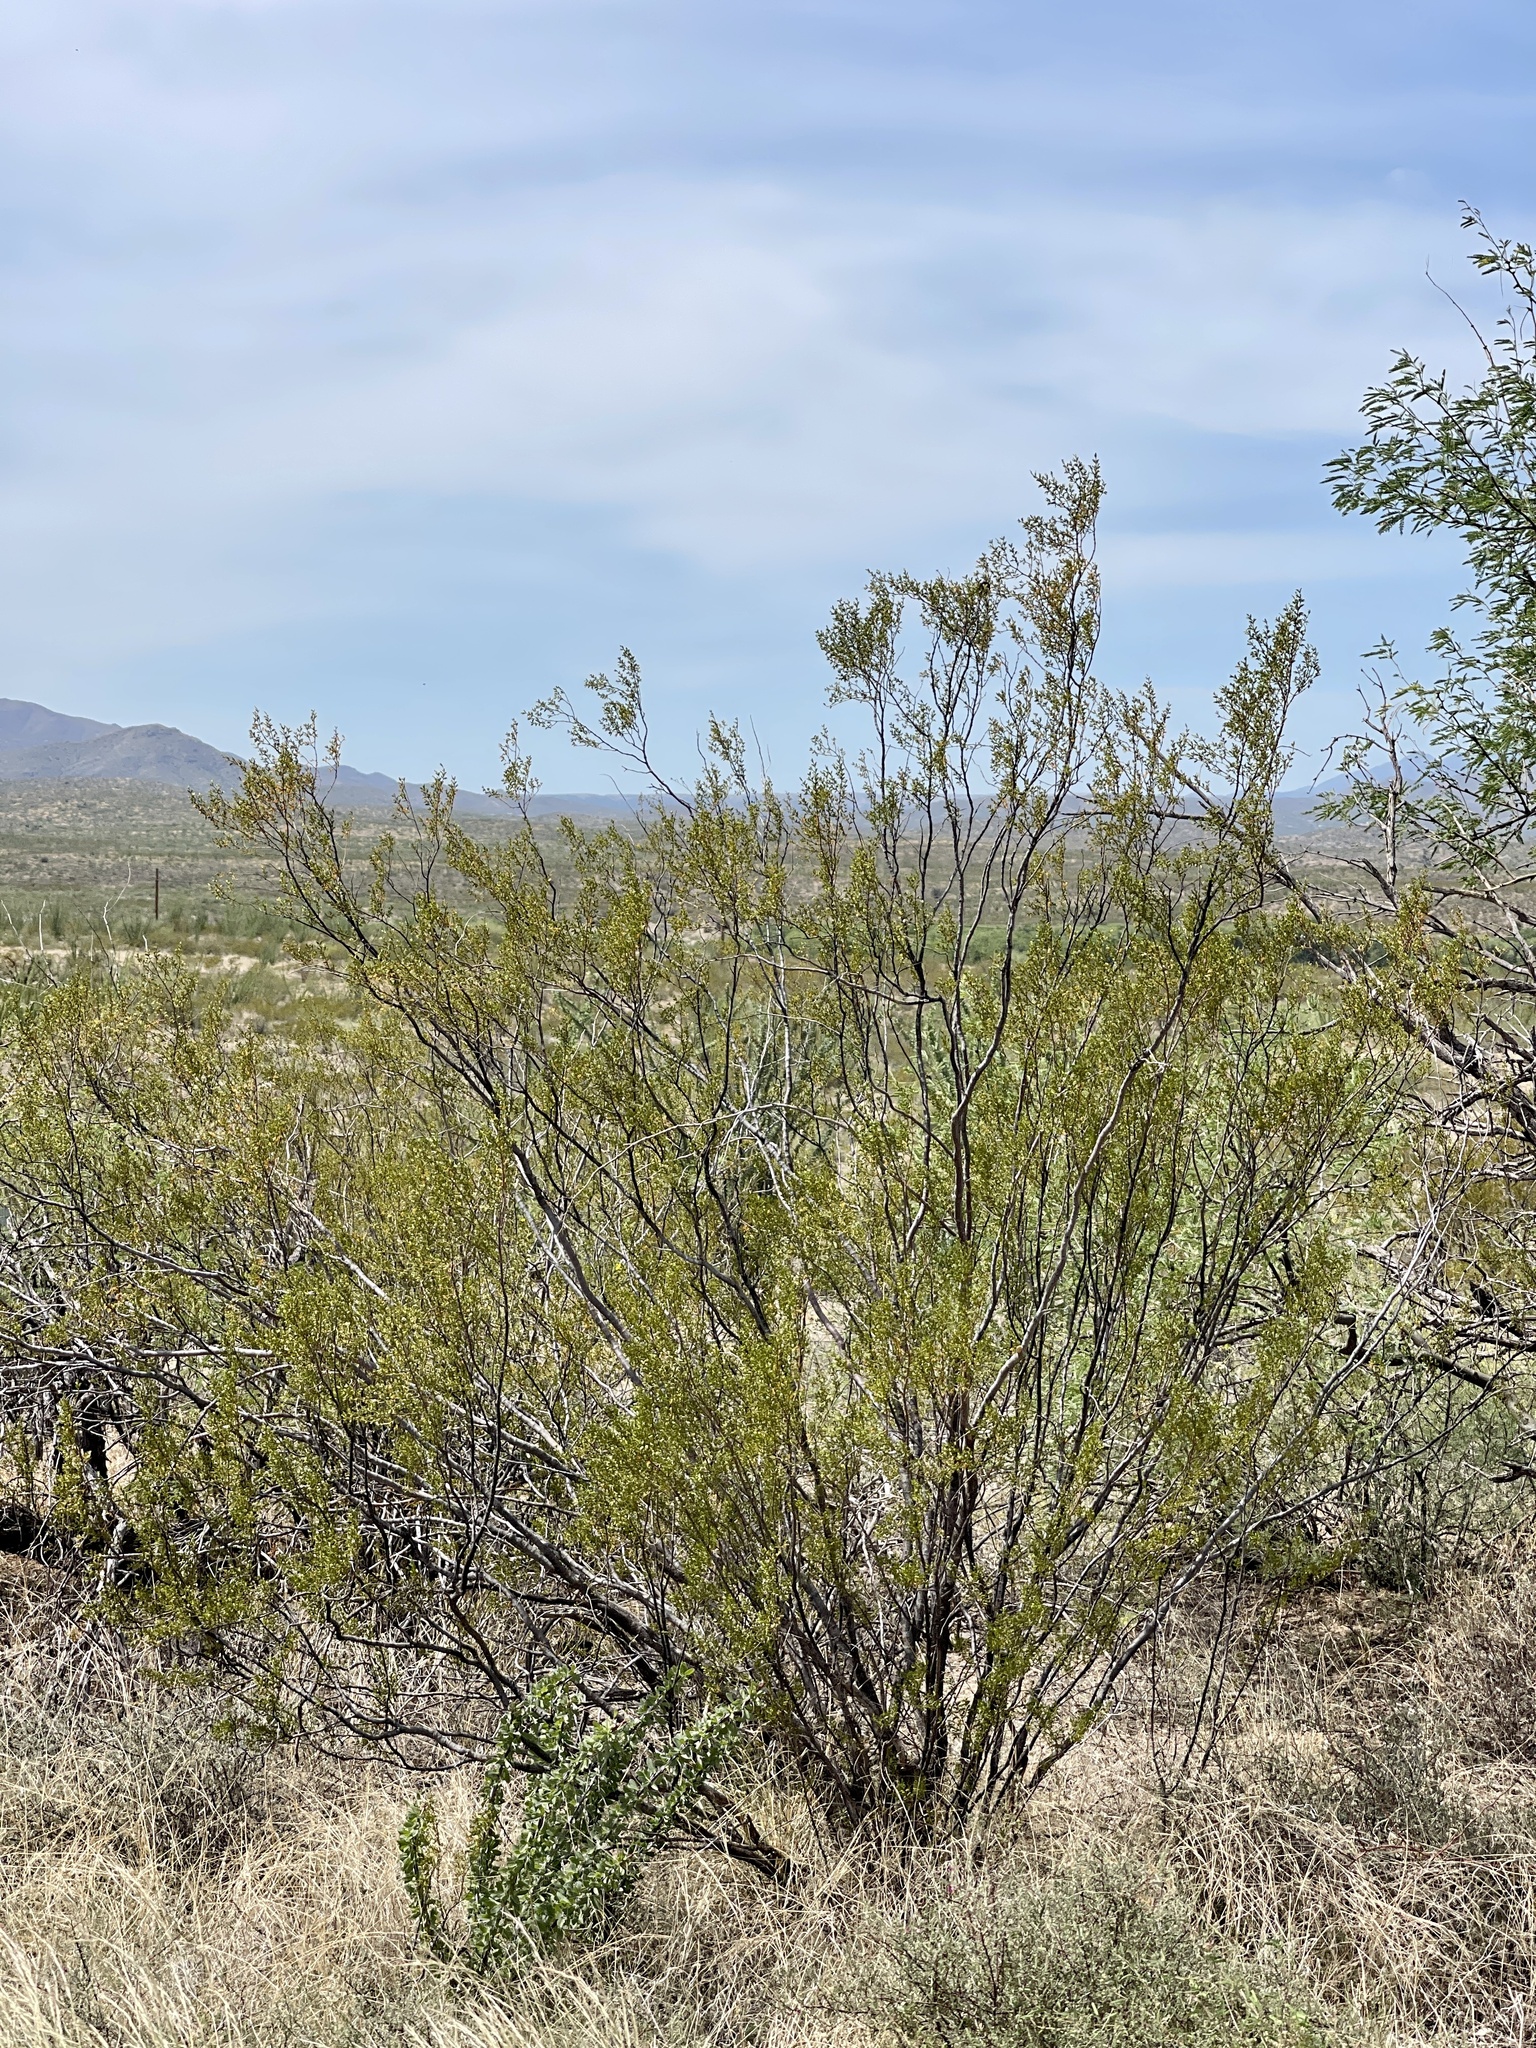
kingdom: Plantae
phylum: Tracheophyta
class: Magnoliopsida
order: Zygophyllales
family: Zygophyllaceae
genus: Larrea
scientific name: Larrea tridentata
